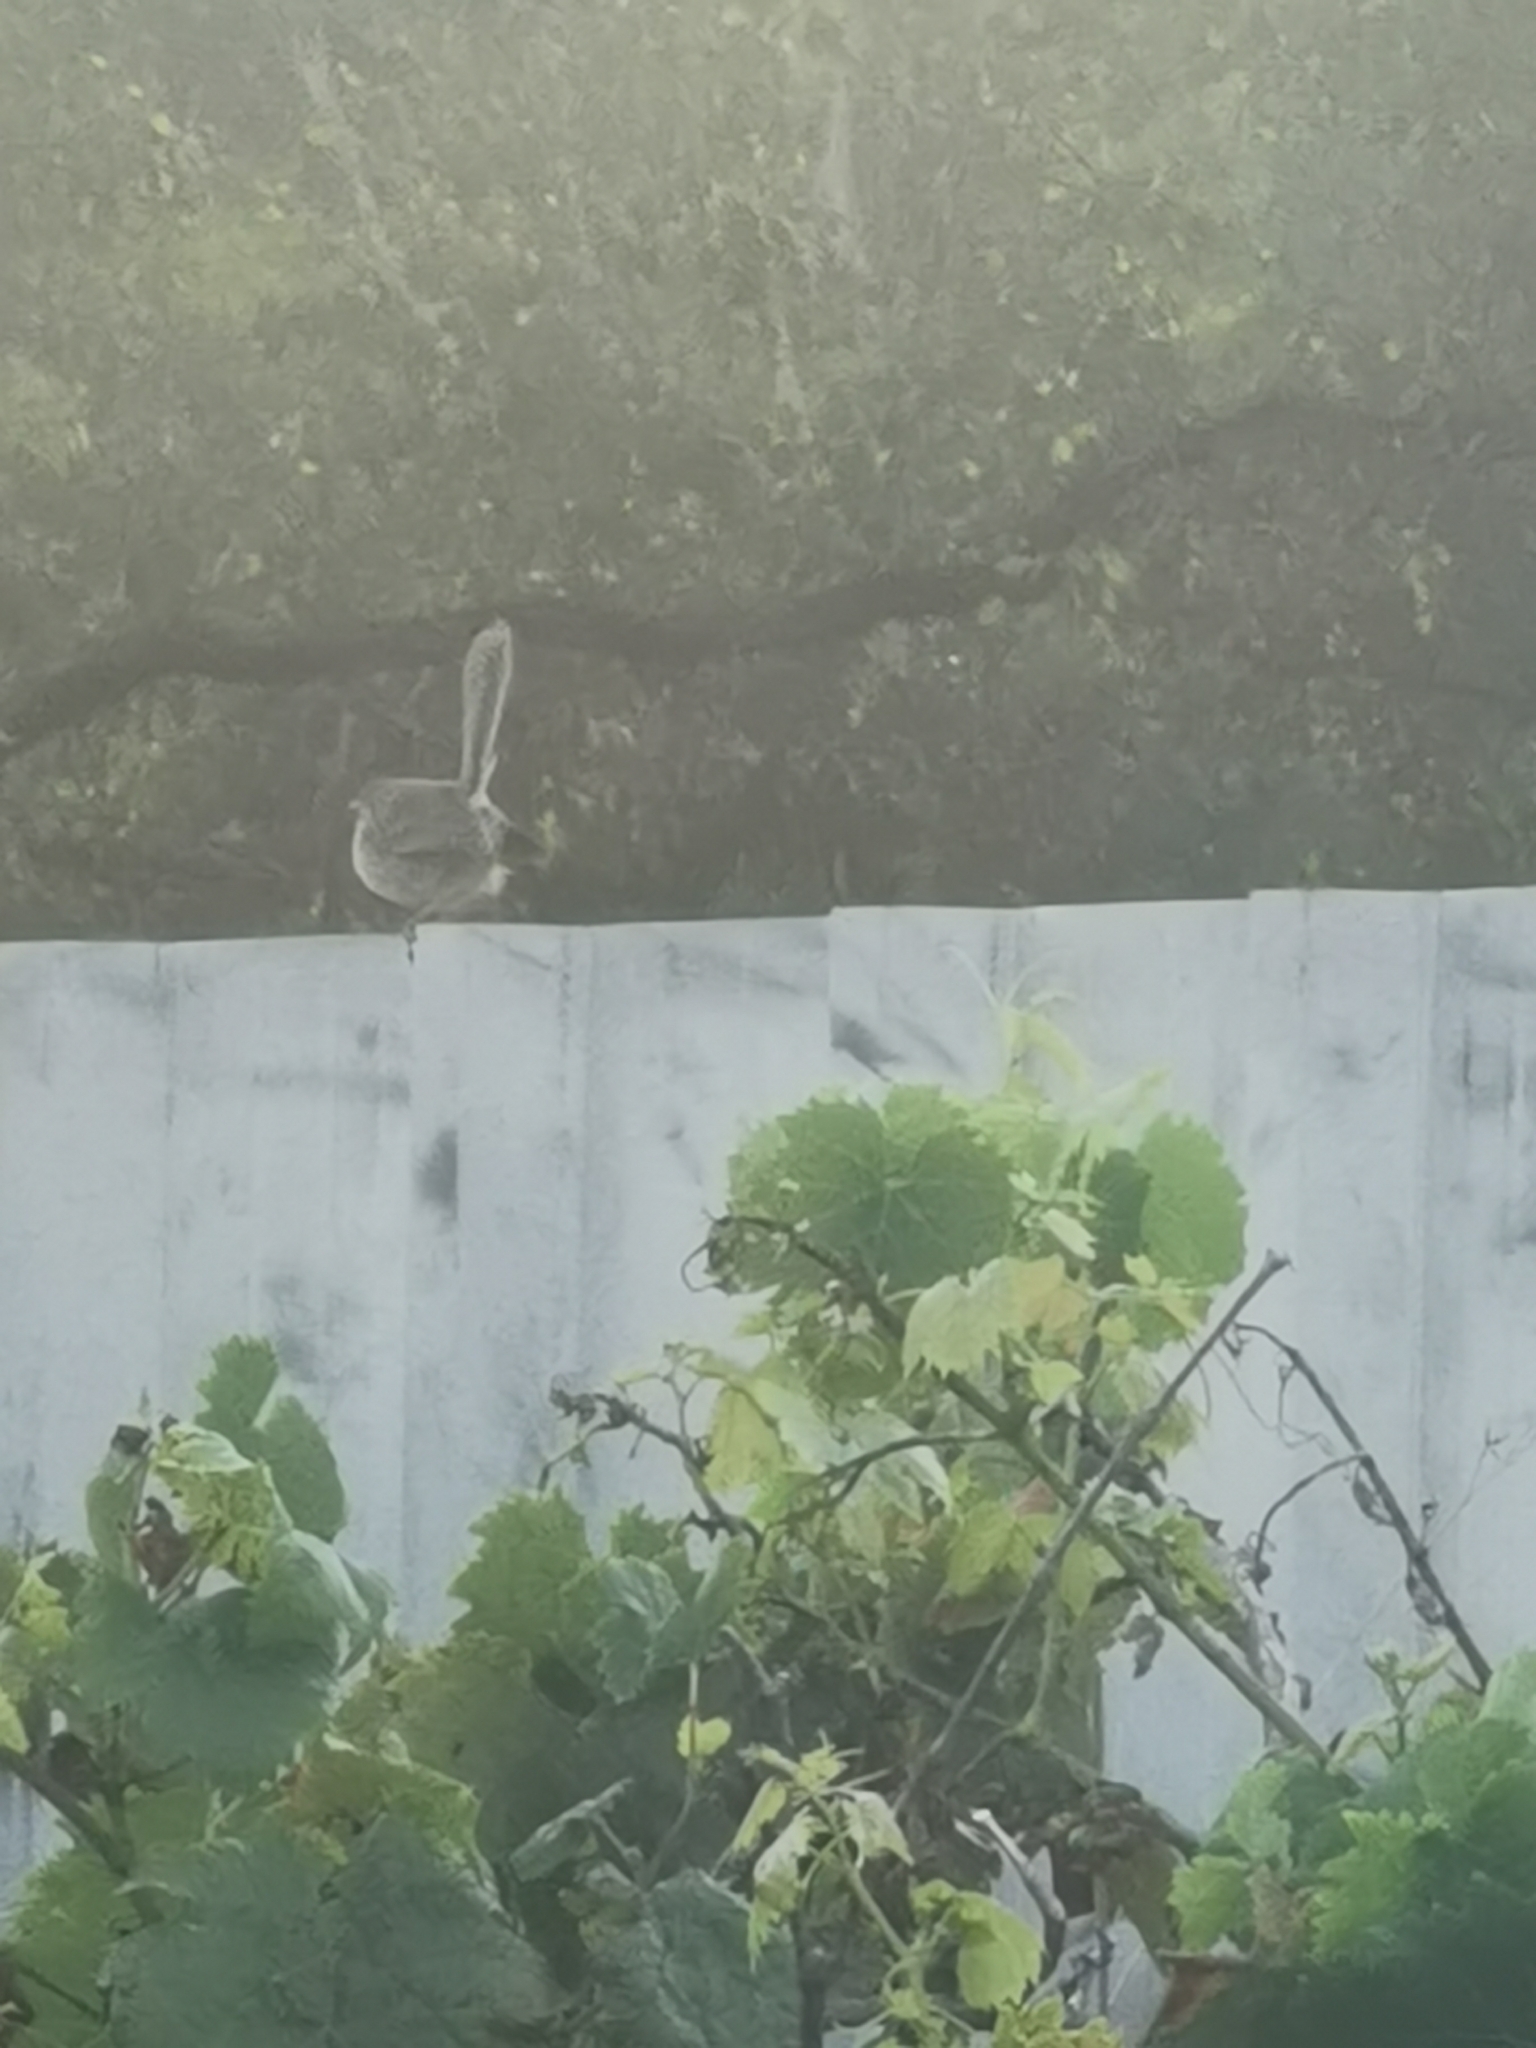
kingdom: Animalia
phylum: Chordata
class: Aves
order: Passeriformes
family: Maluridae
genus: Malurus
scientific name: Malurus cyaneus
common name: Superb fairywren
